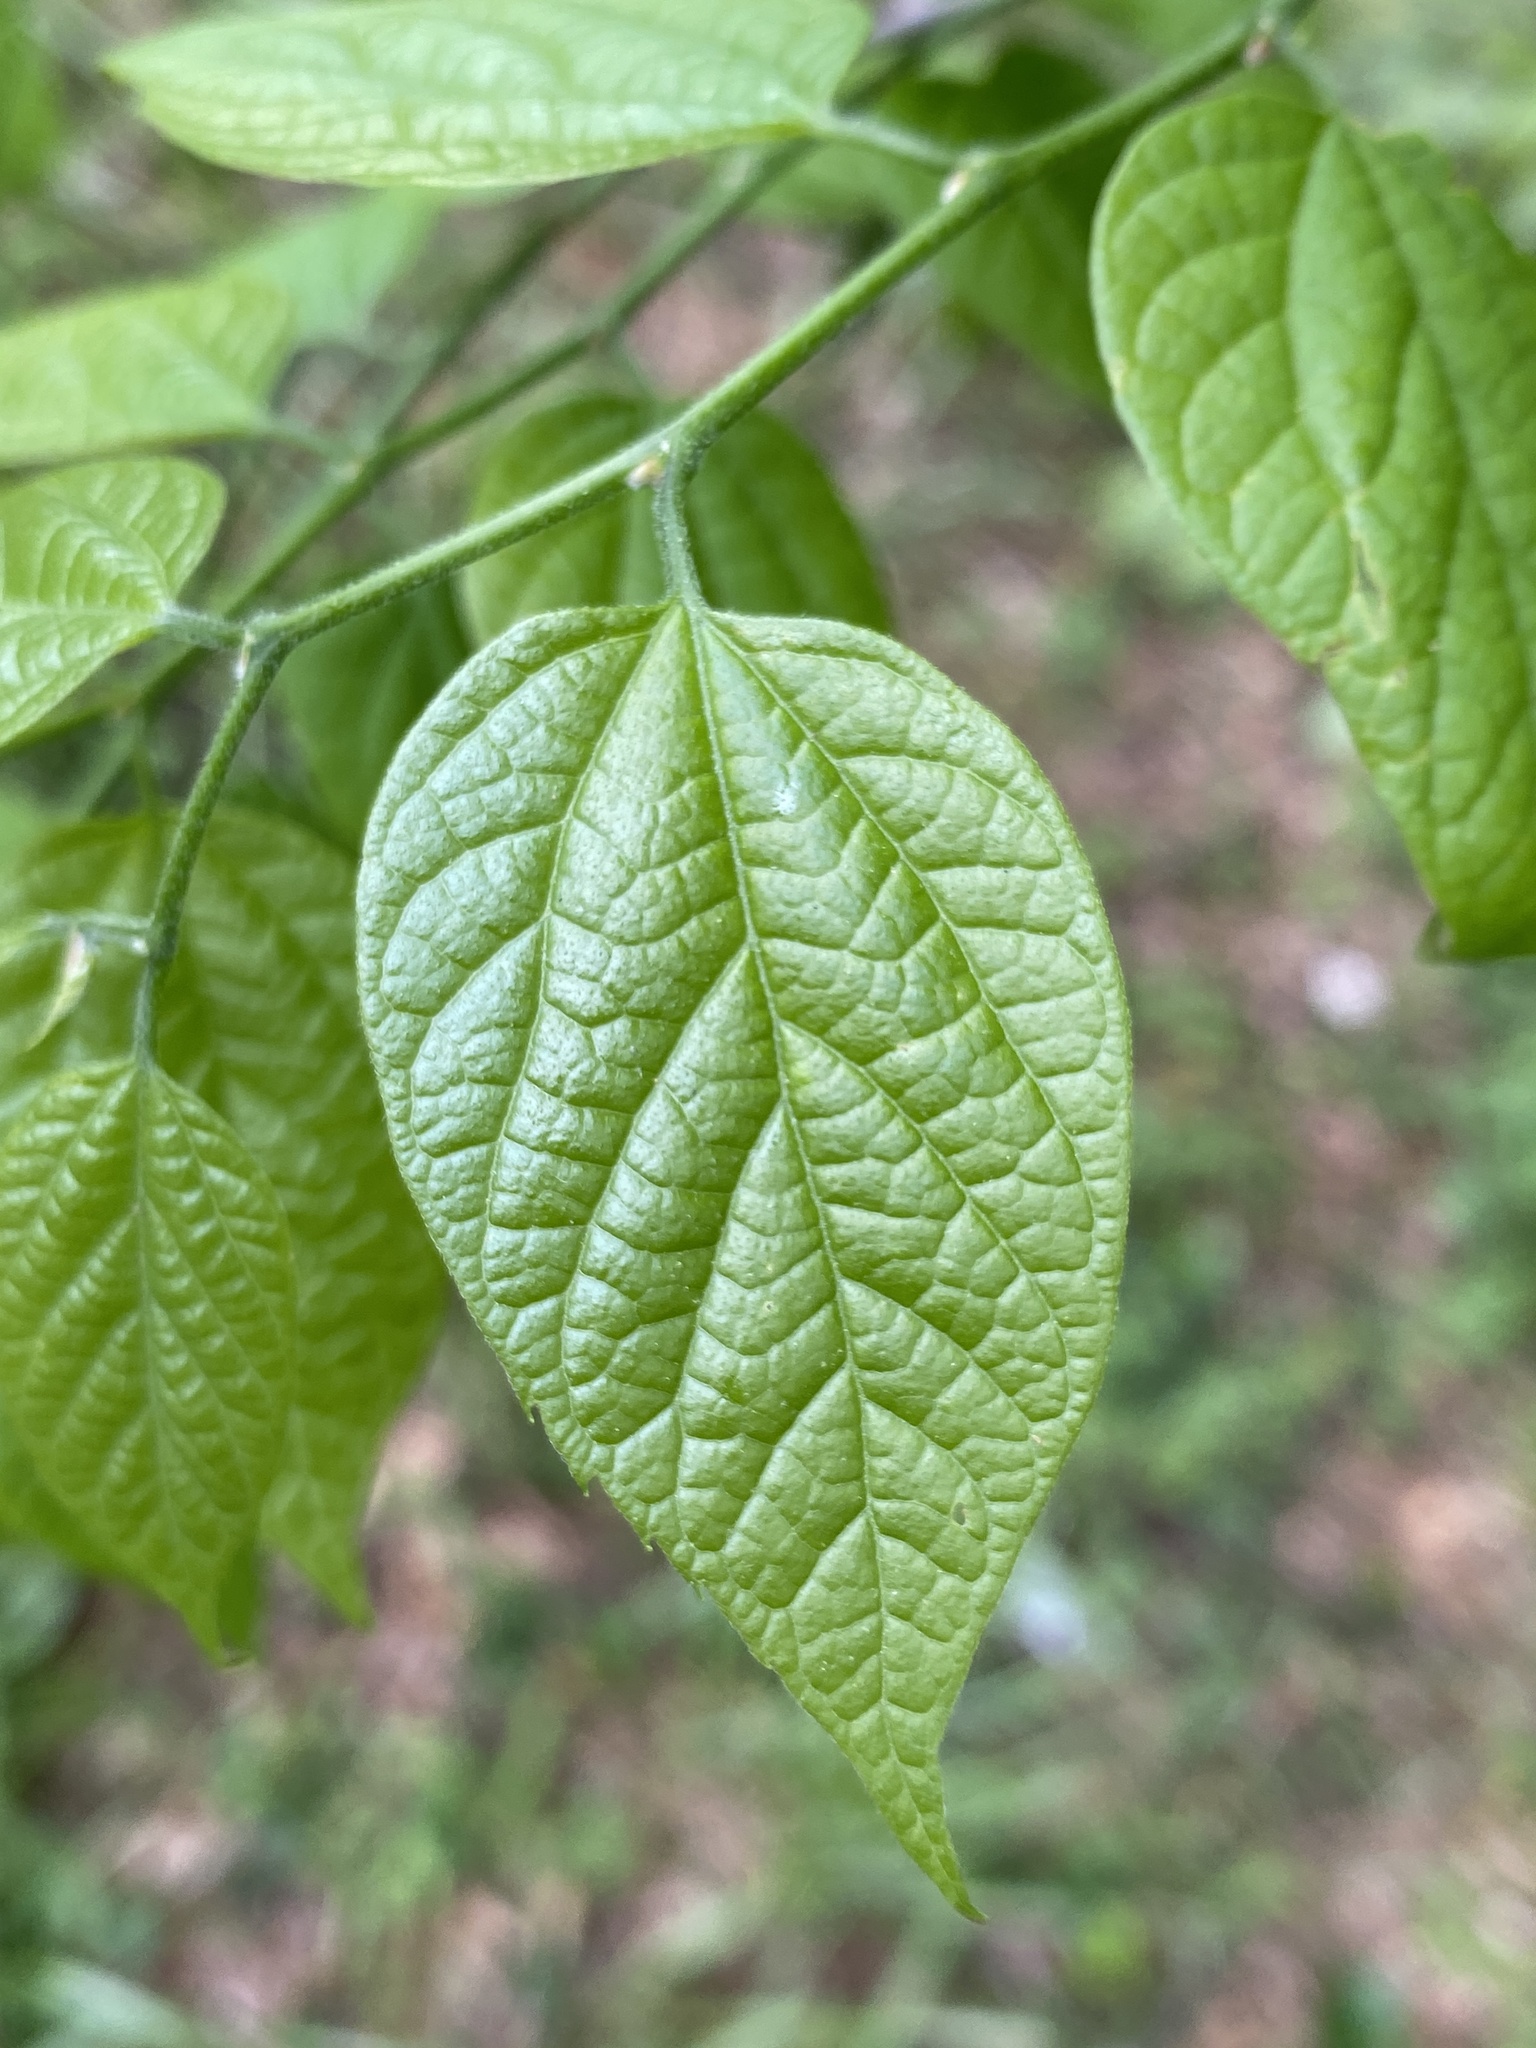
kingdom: Plantae
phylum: Tracheophyta
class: Magnoliopsida
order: Rosales
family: Cannabaceae
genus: Celtis
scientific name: Celtis laevigata
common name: Sugarberry
